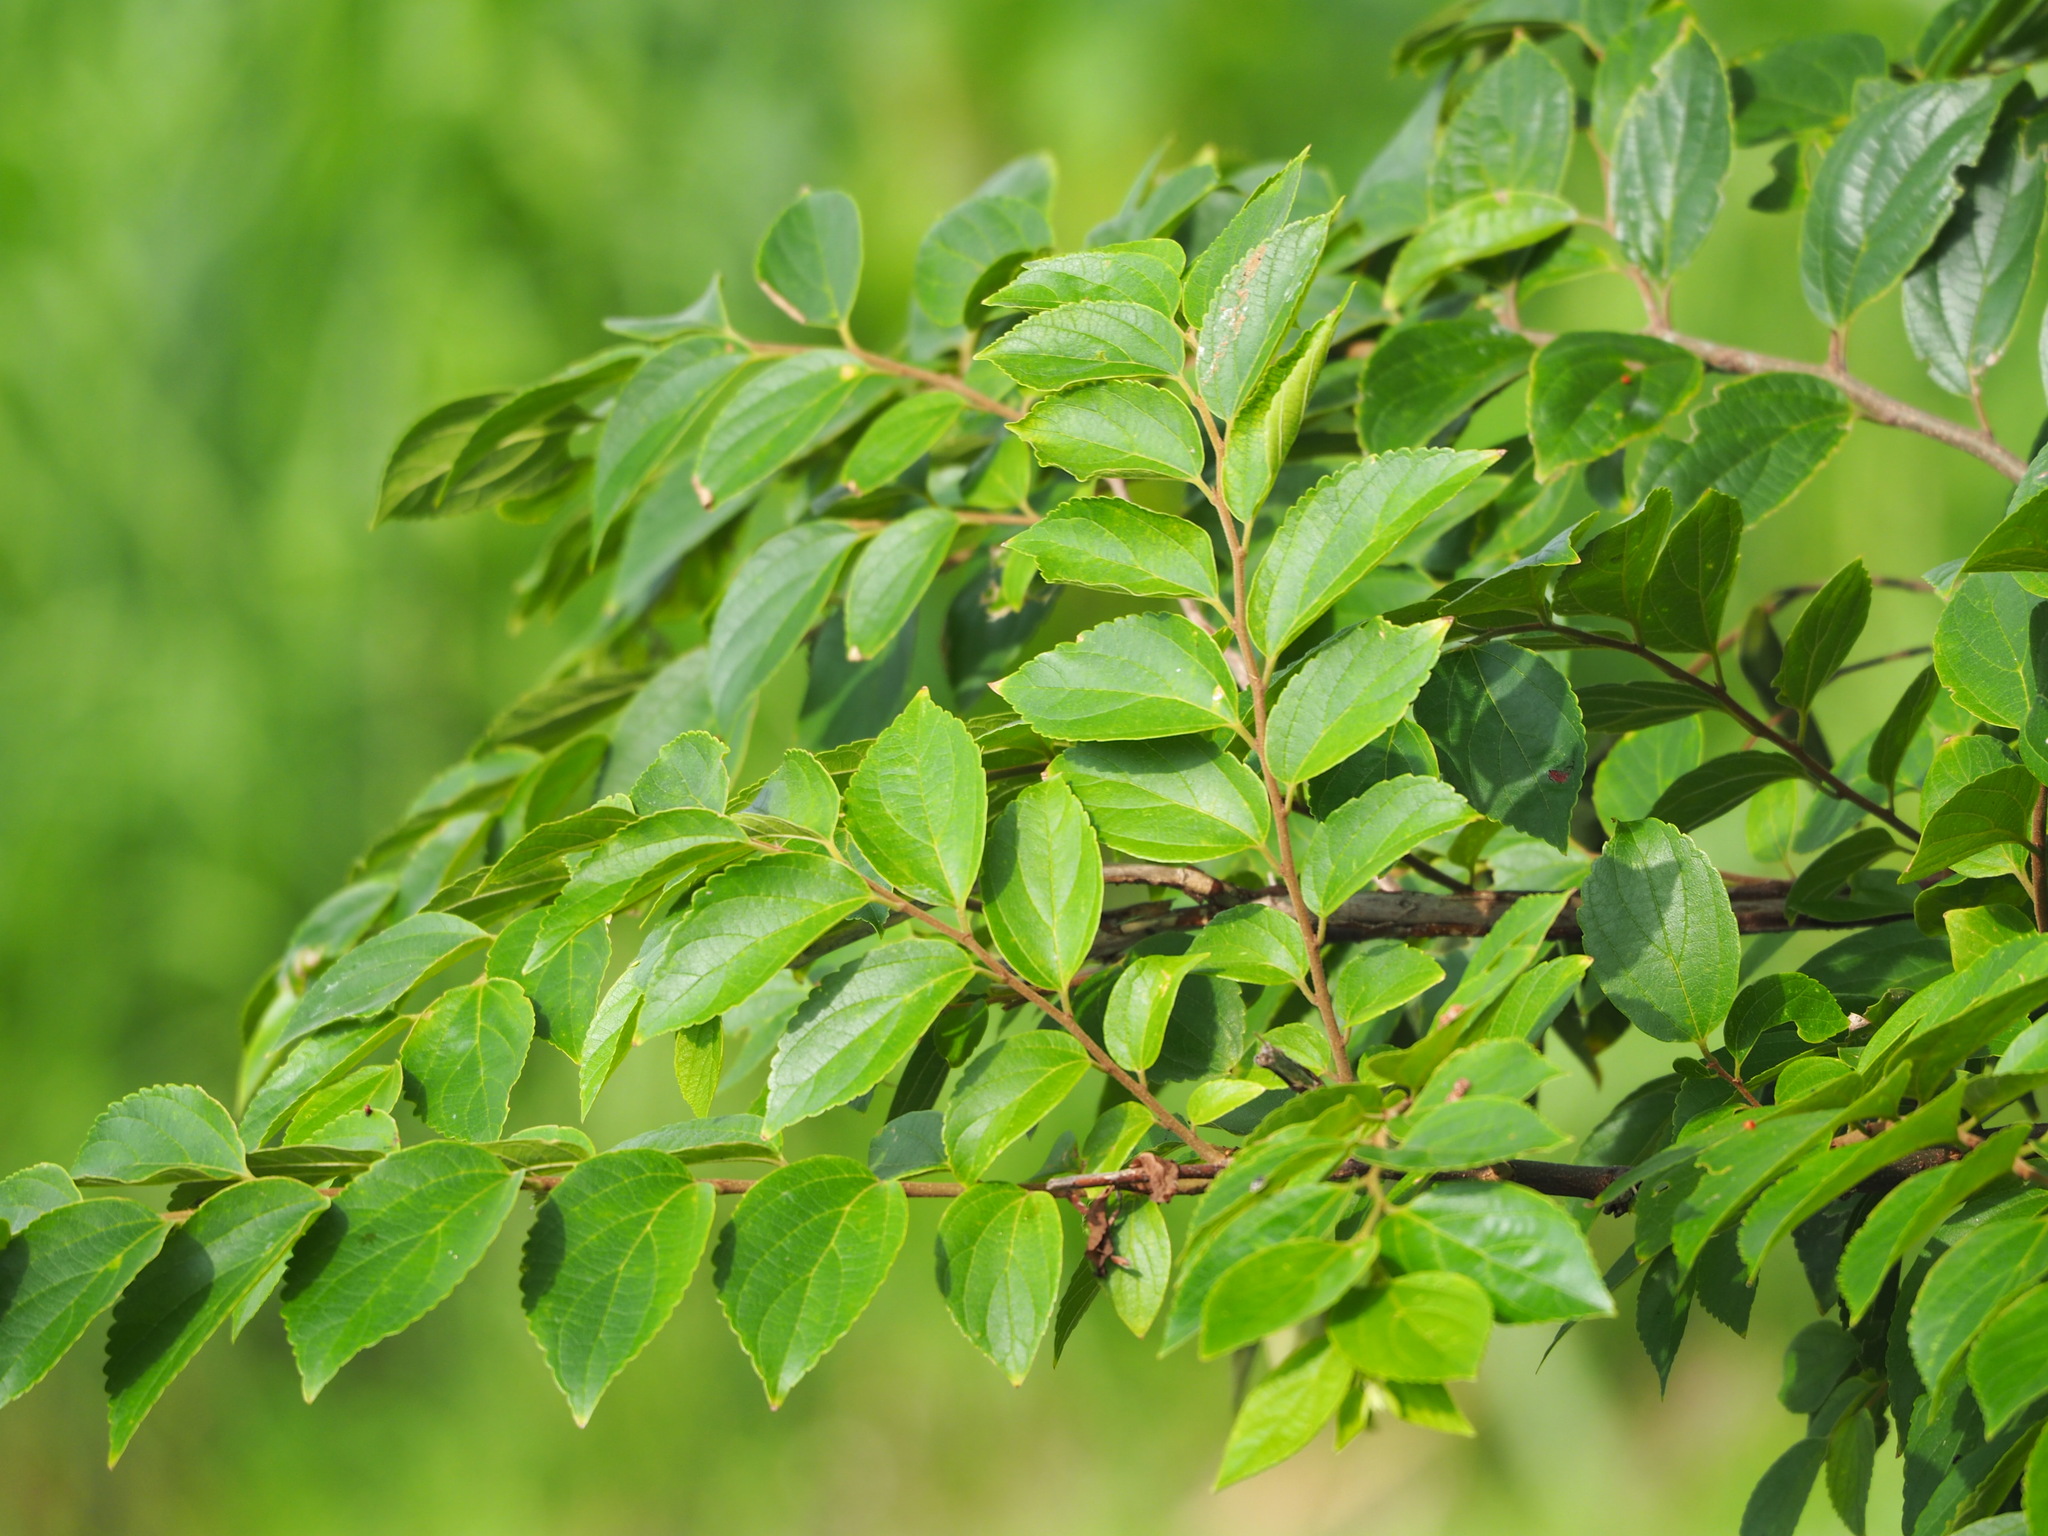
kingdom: Plantae
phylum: Tracheophyta
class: Magnoliopsida
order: Rosales
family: Cannabaceae
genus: Celtis
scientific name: Celtis sinensis
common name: Chinese hackberry
